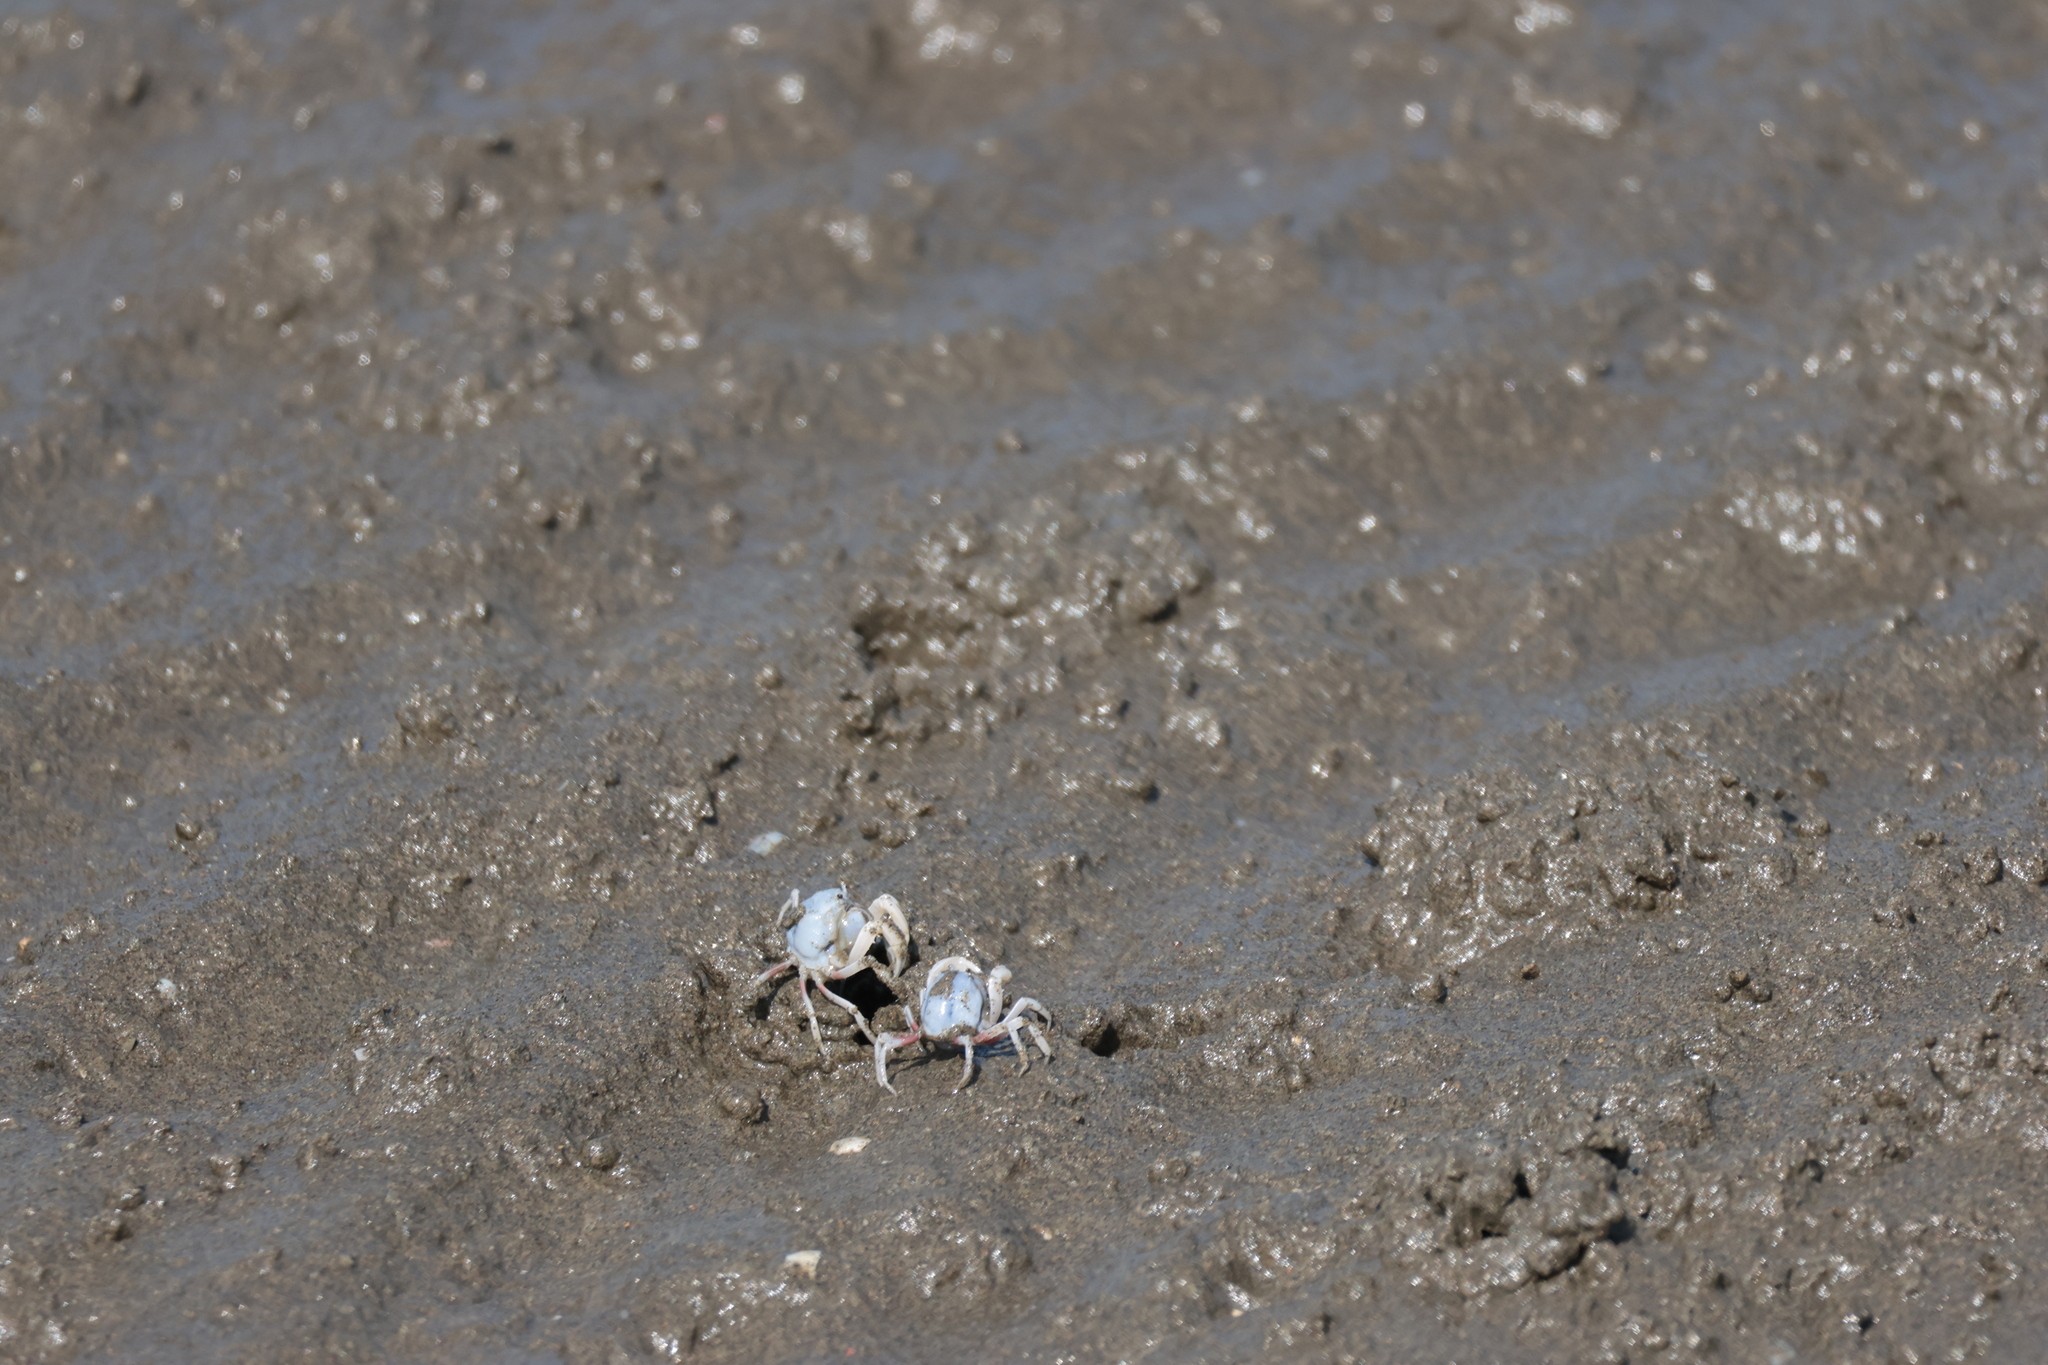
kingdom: Animalia
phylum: Arthropoda
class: Malacostraca
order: Decapoda
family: Mictyridae
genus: Mictyris
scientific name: Mictyris brevidactylus
